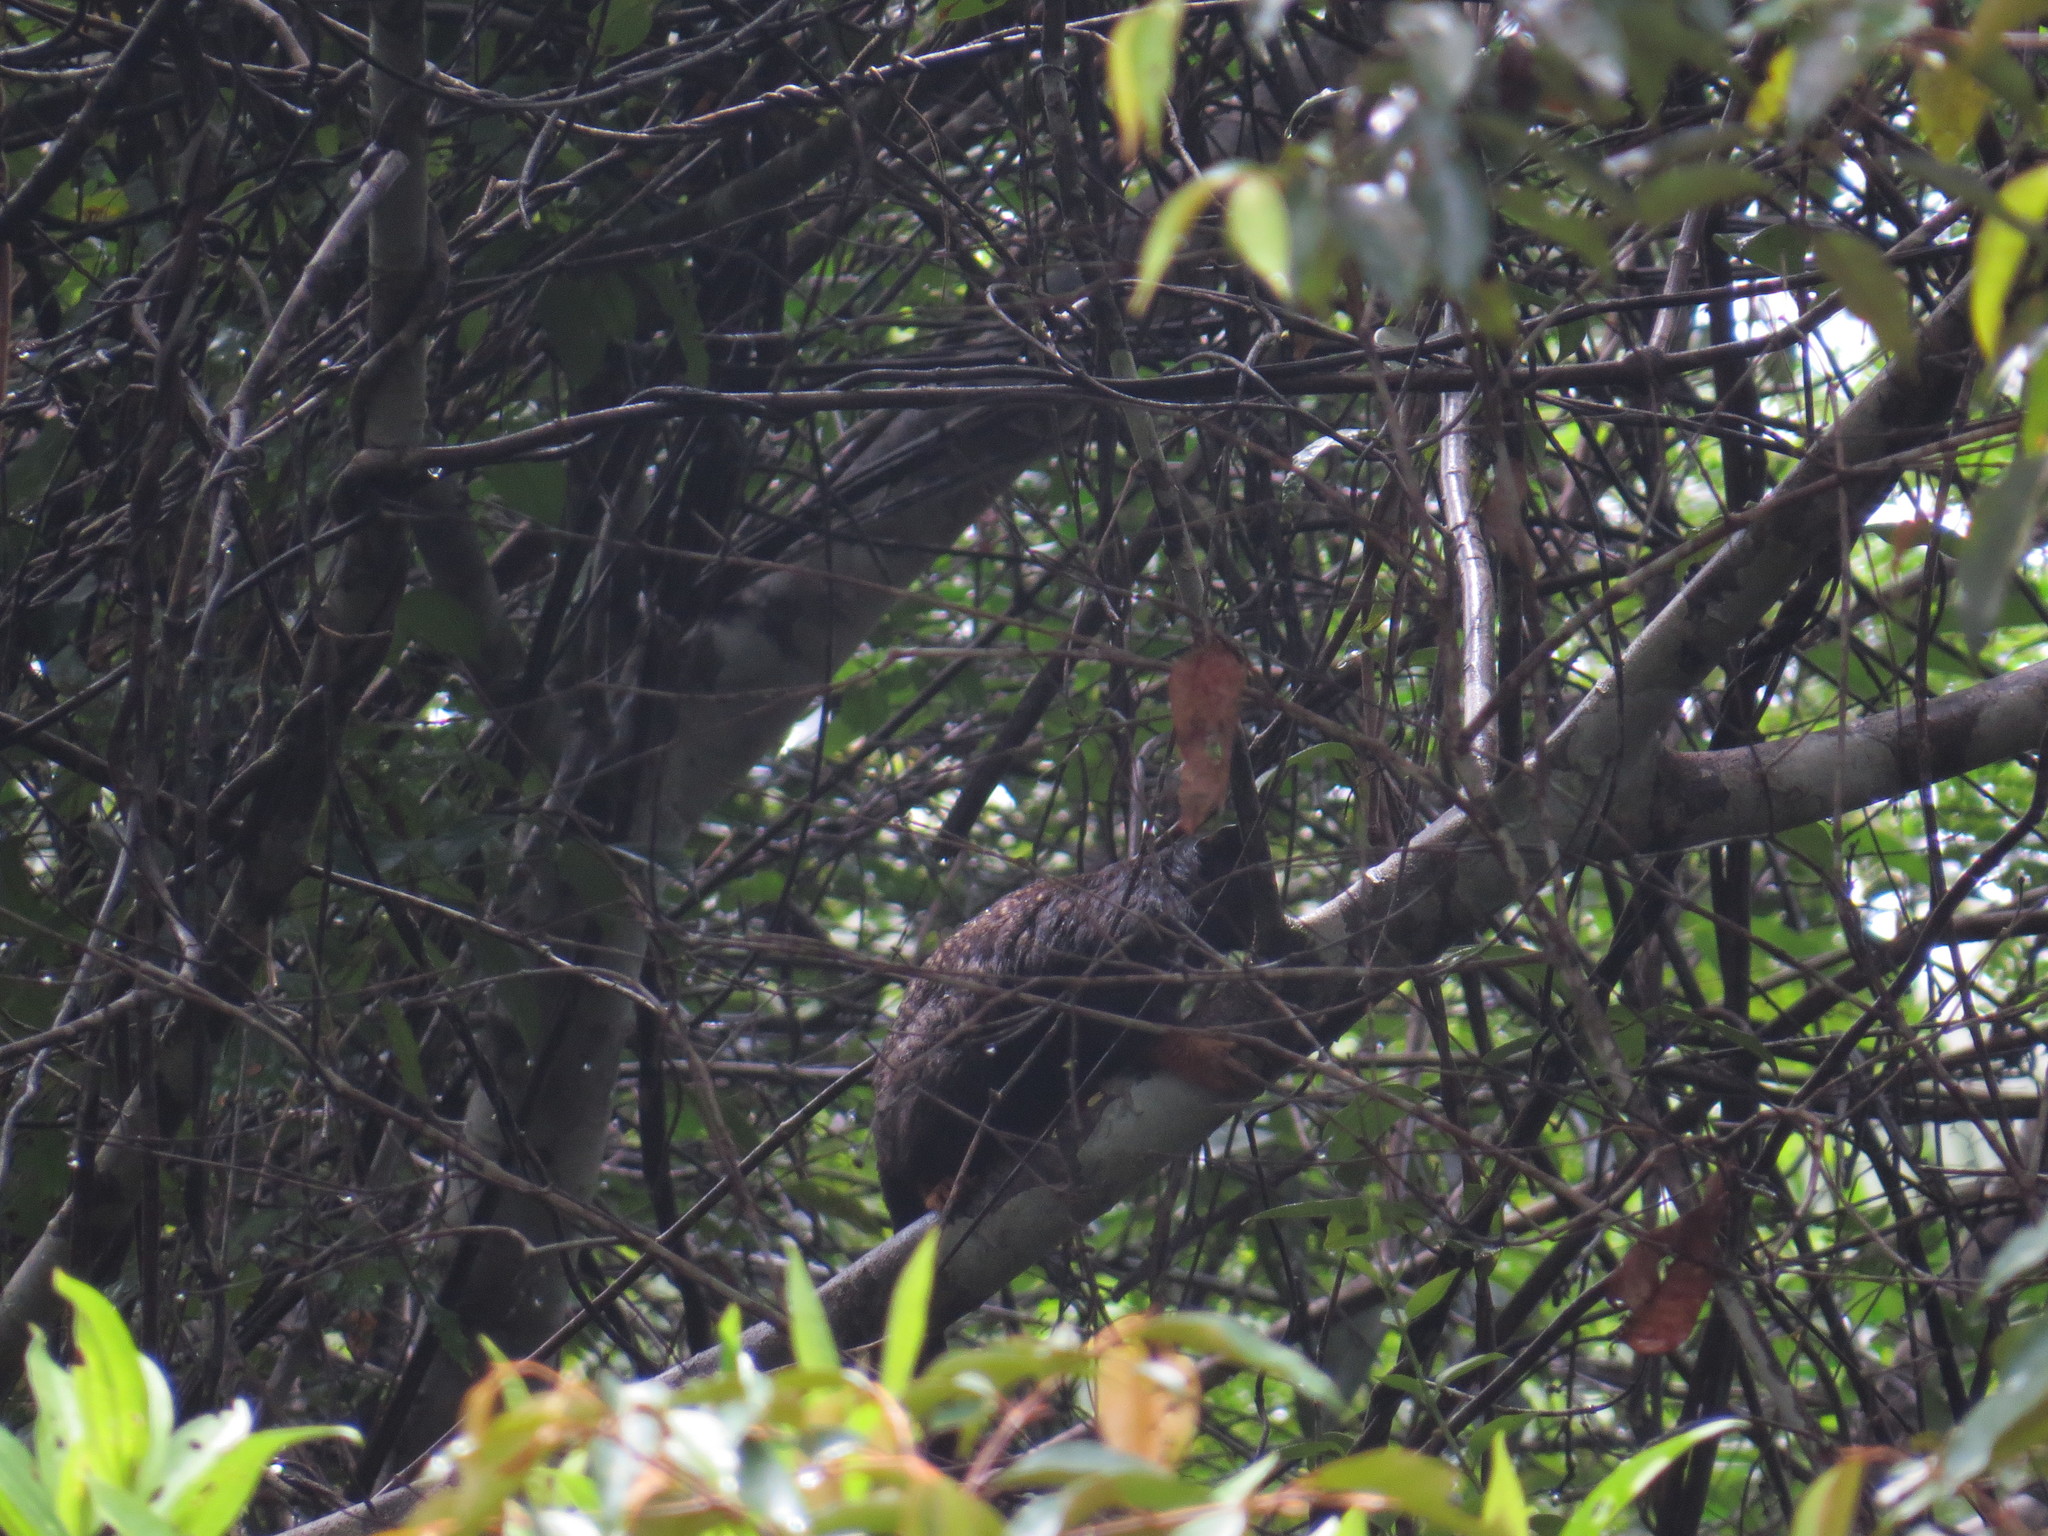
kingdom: Animalia
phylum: Chordata
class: Mammalia
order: Primates
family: Callitrichidae
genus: Saguinus
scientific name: Saguinus midas
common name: Red-handed tamarin
